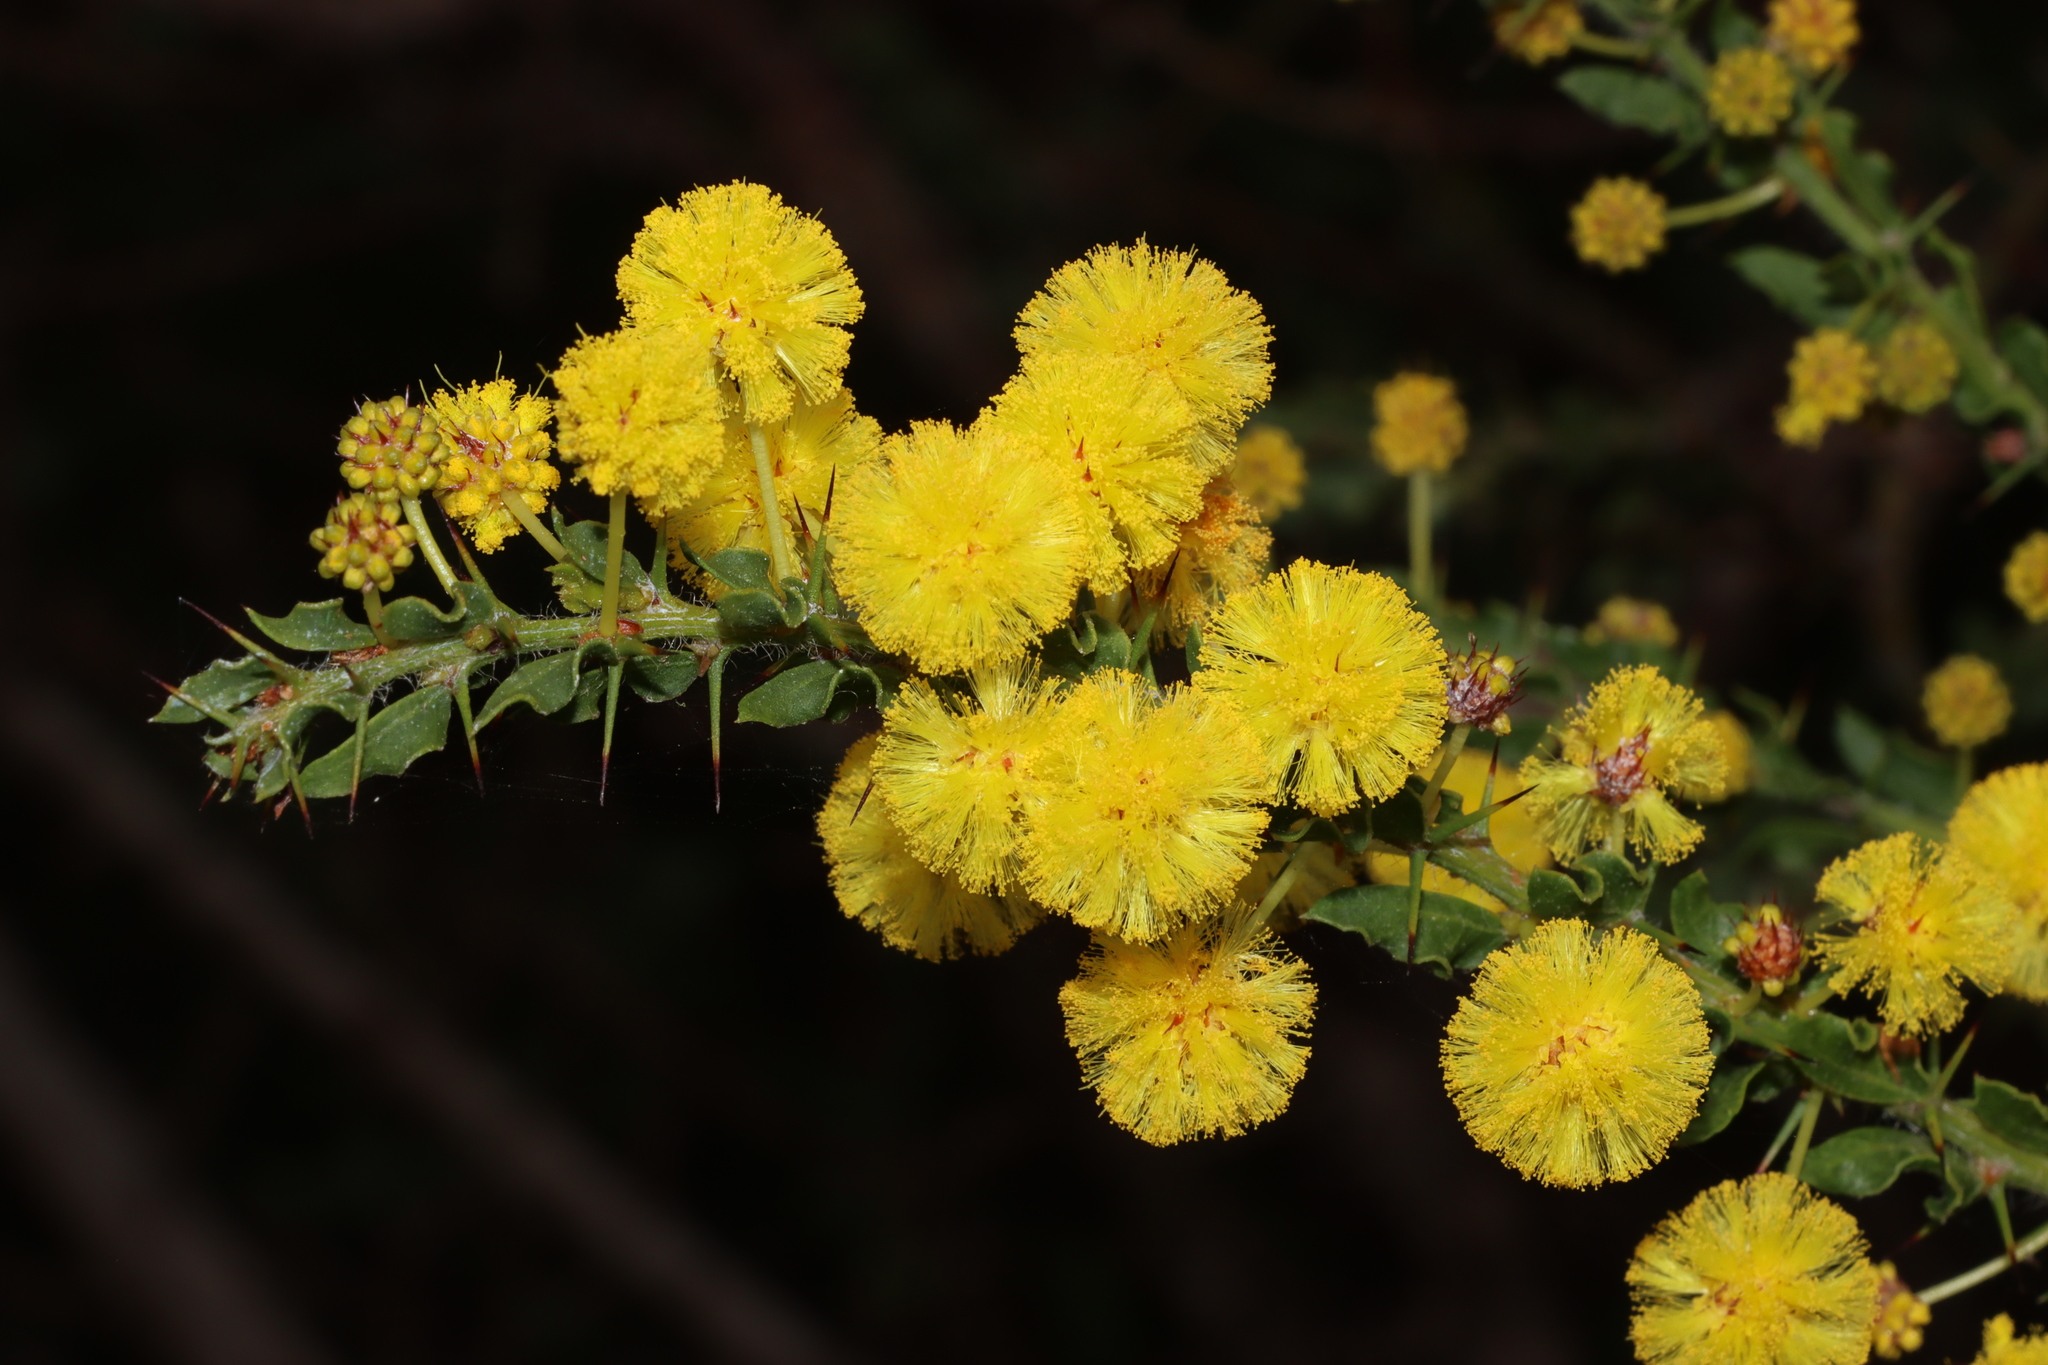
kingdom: Plantae
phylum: Tracheophyta
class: Magnoliopsida
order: Fabales
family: Fabaceae
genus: Acacia
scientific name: Acacia paradoxa
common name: Paradox acacia
